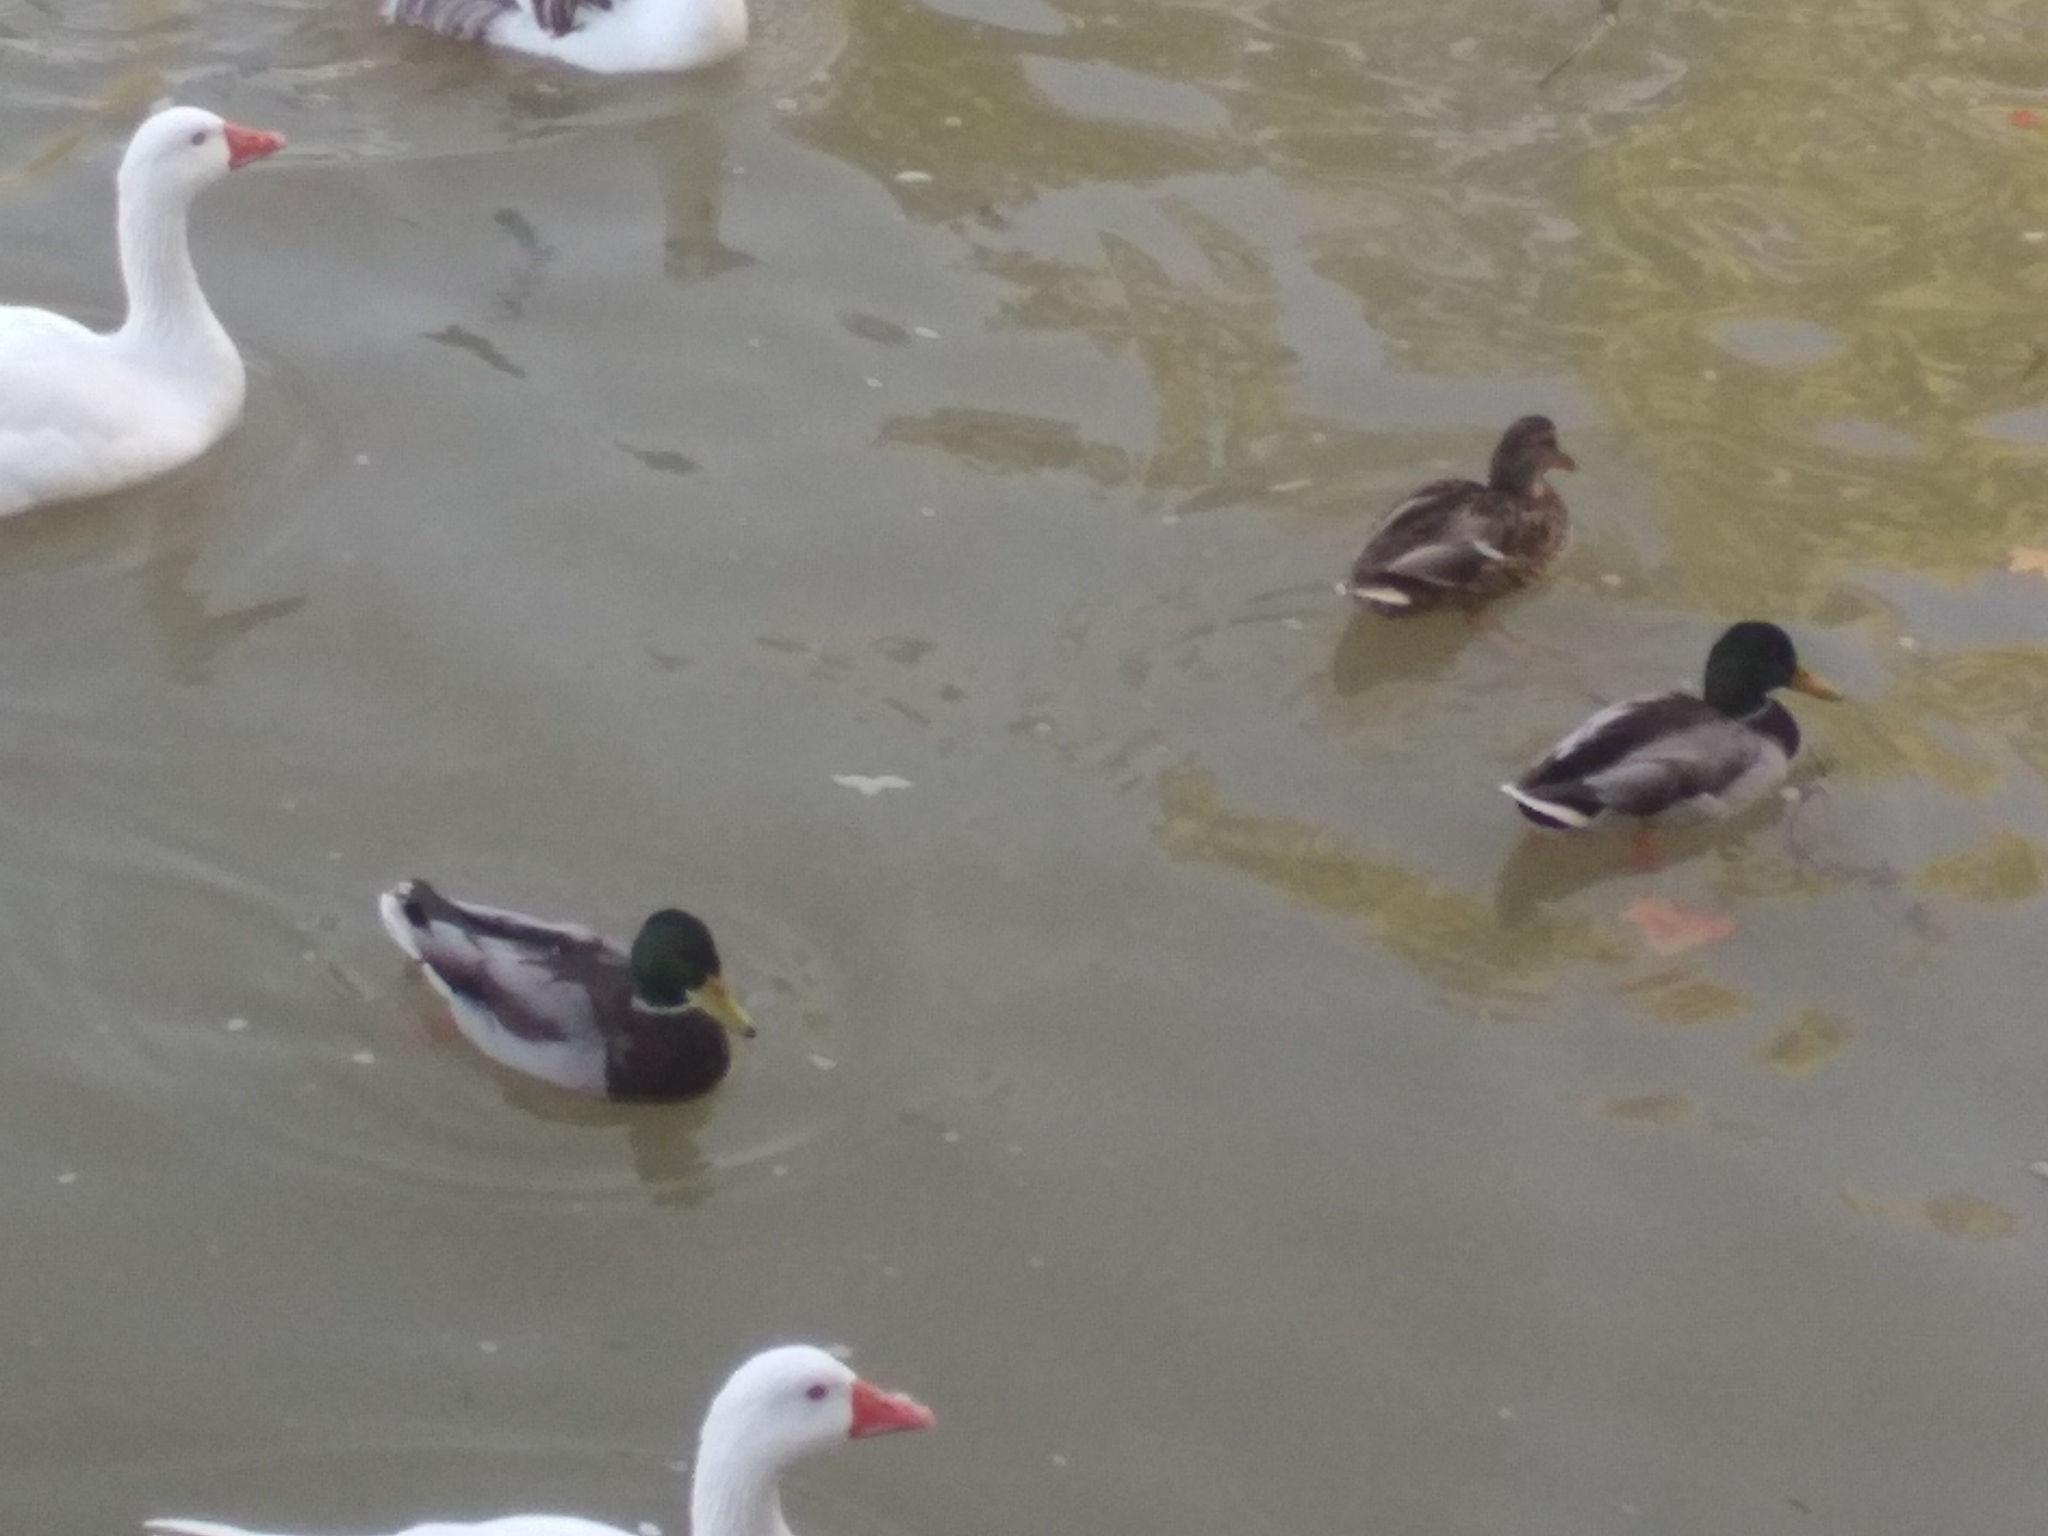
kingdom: Animalia
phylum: Chordata
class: Aves
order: Anseriformes
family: Anatidae
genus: Anas
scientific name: Anas platyrhynchos
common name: Mallard
